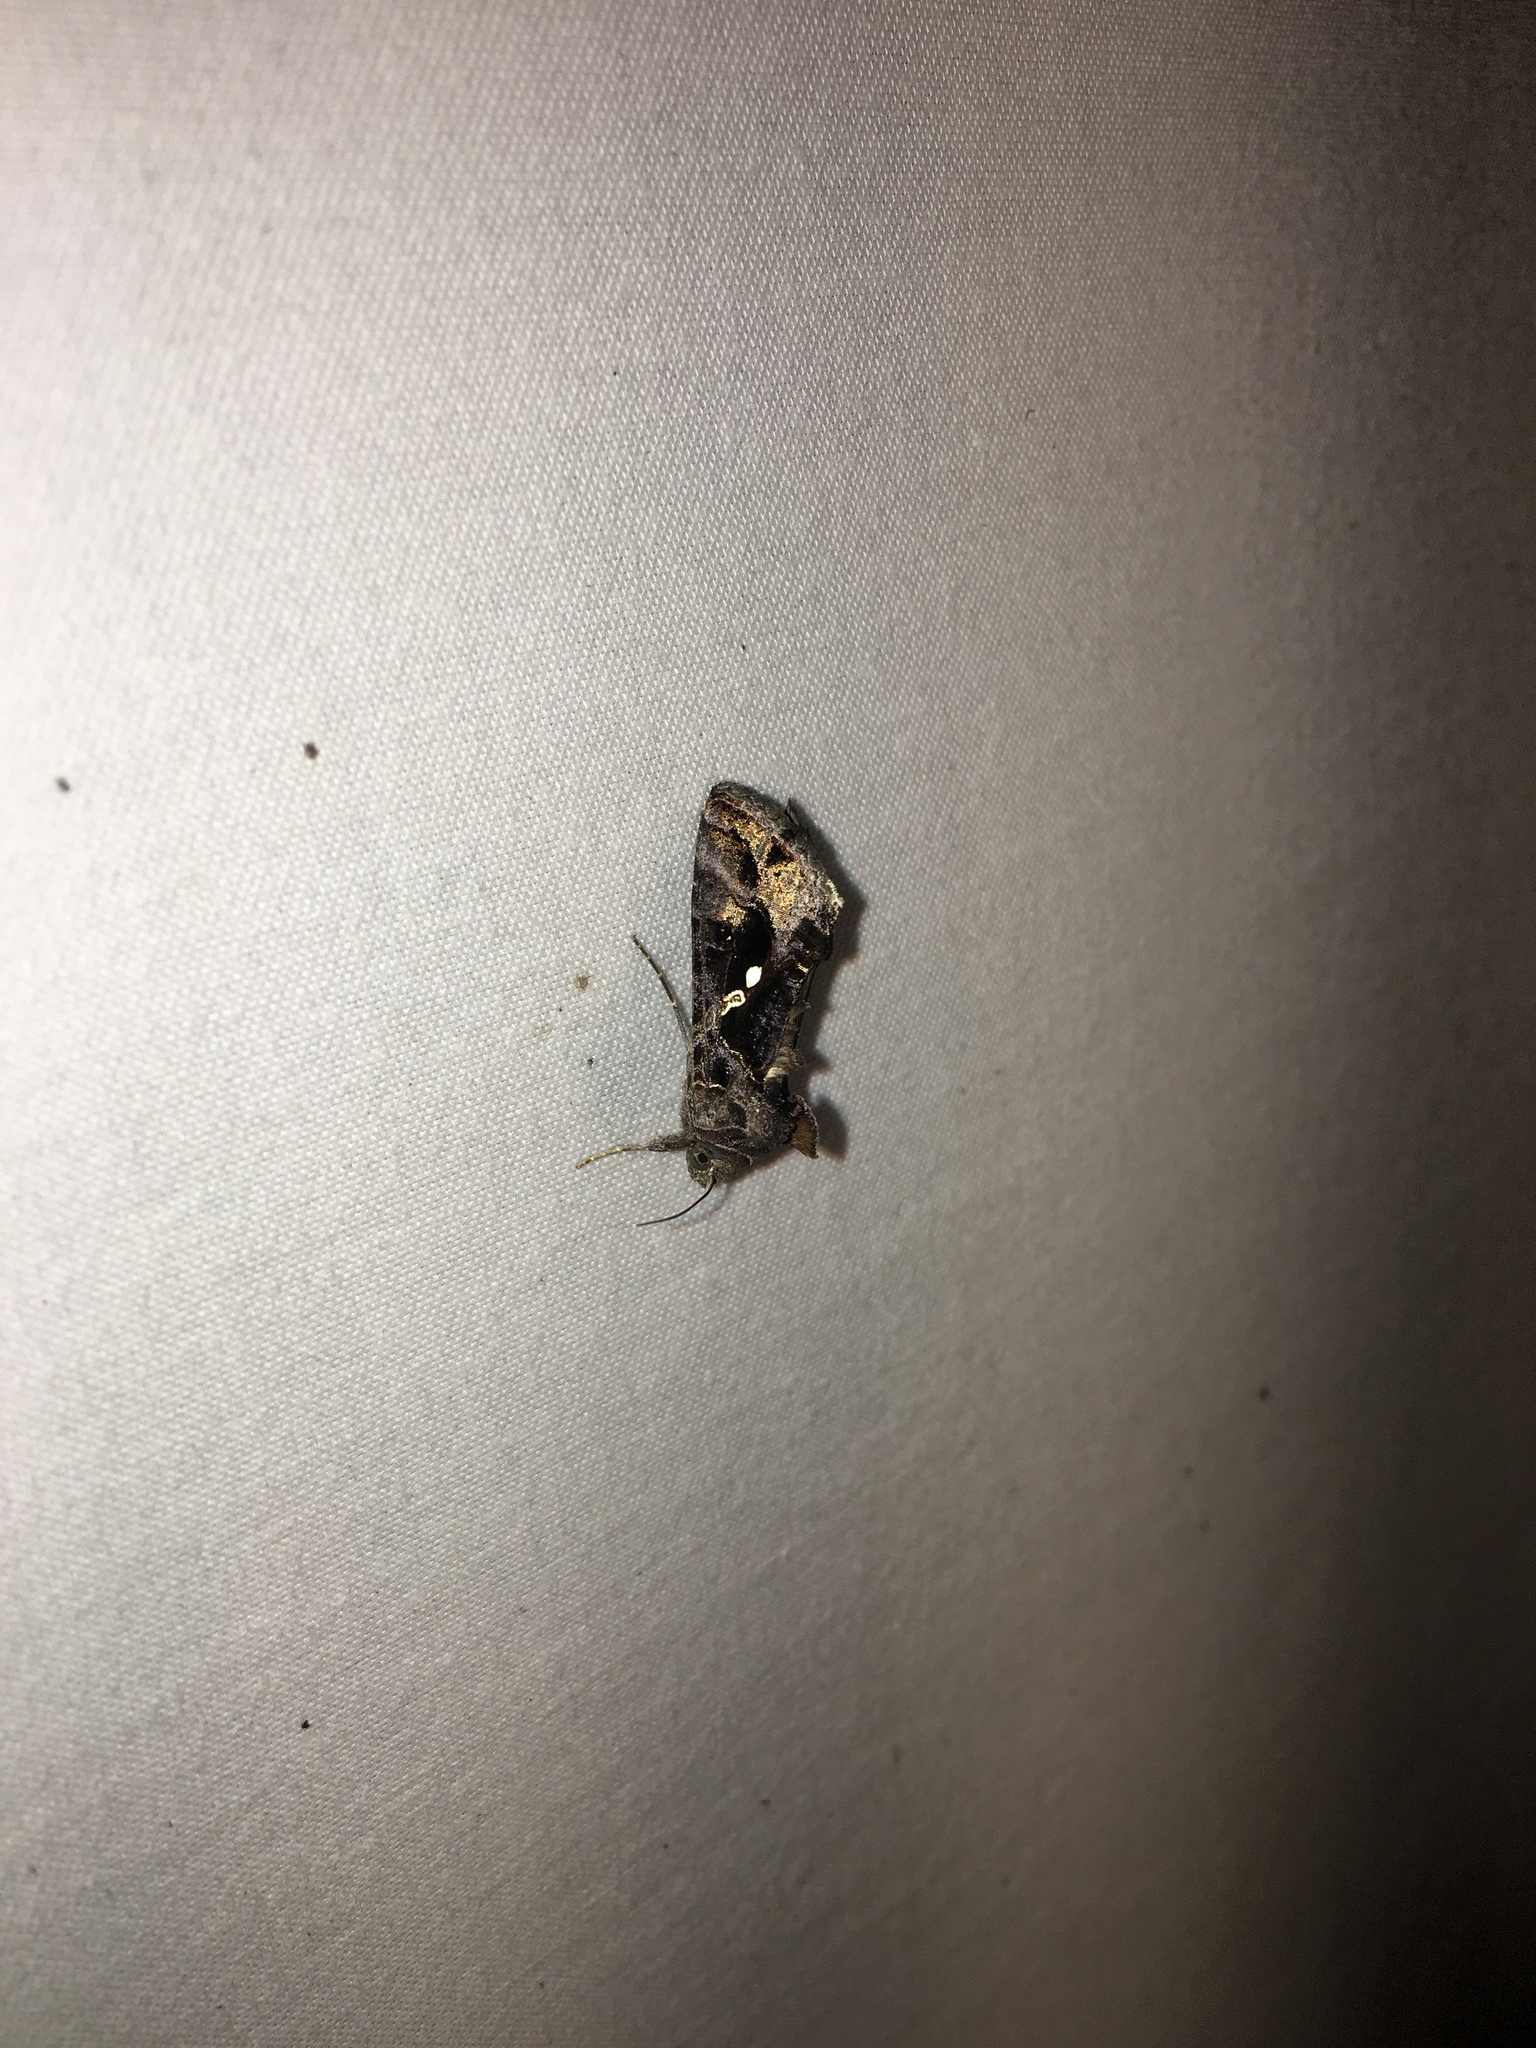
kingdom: Animalia
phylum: Arthropoda
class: Insecta
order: Lepidoptera
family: Noctuidae
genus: Chrysodeixis
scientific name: Chrysodeixis includens
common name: Cutworm moth
